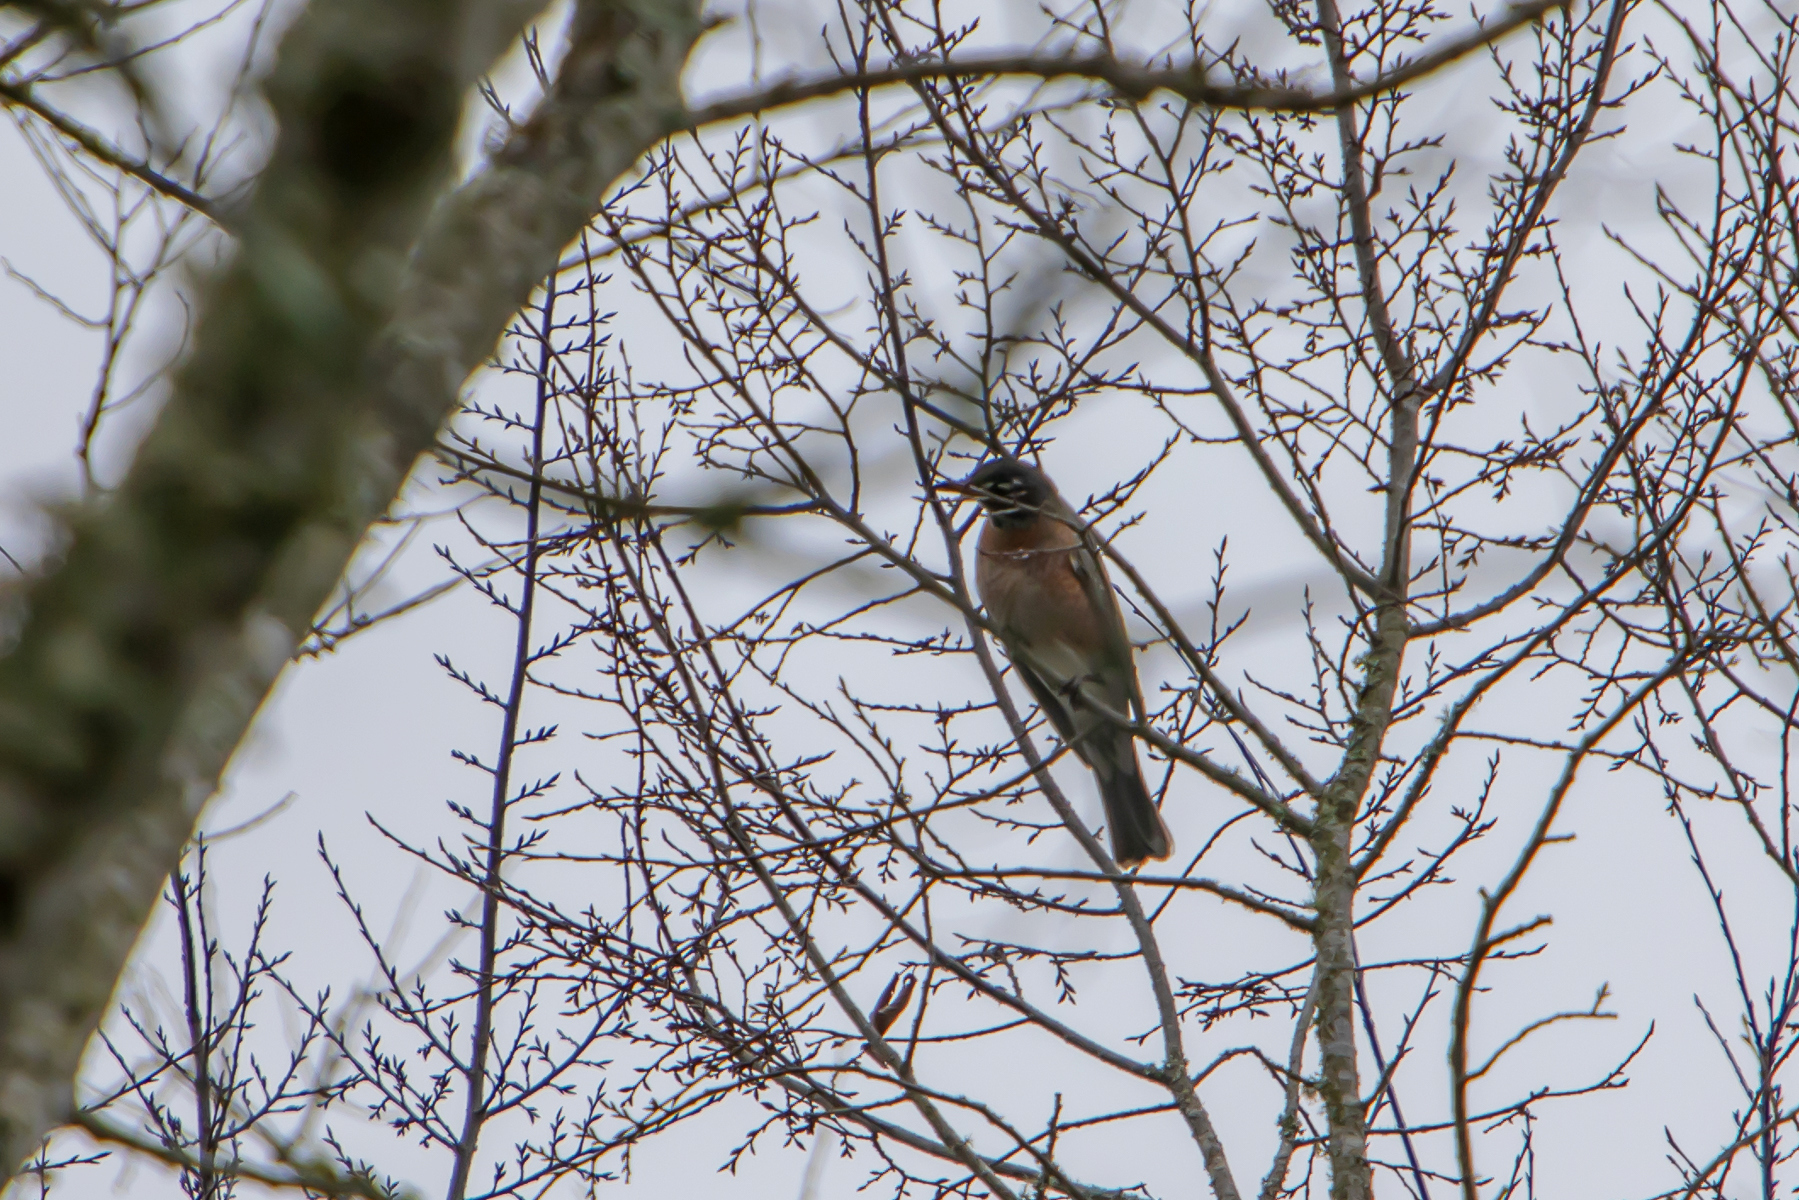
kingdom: Animalia
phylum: Chordata
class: Aves
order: Passeriformes
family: Turdidae
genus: Turdus
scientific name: Turdus migratorius
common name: American robin
